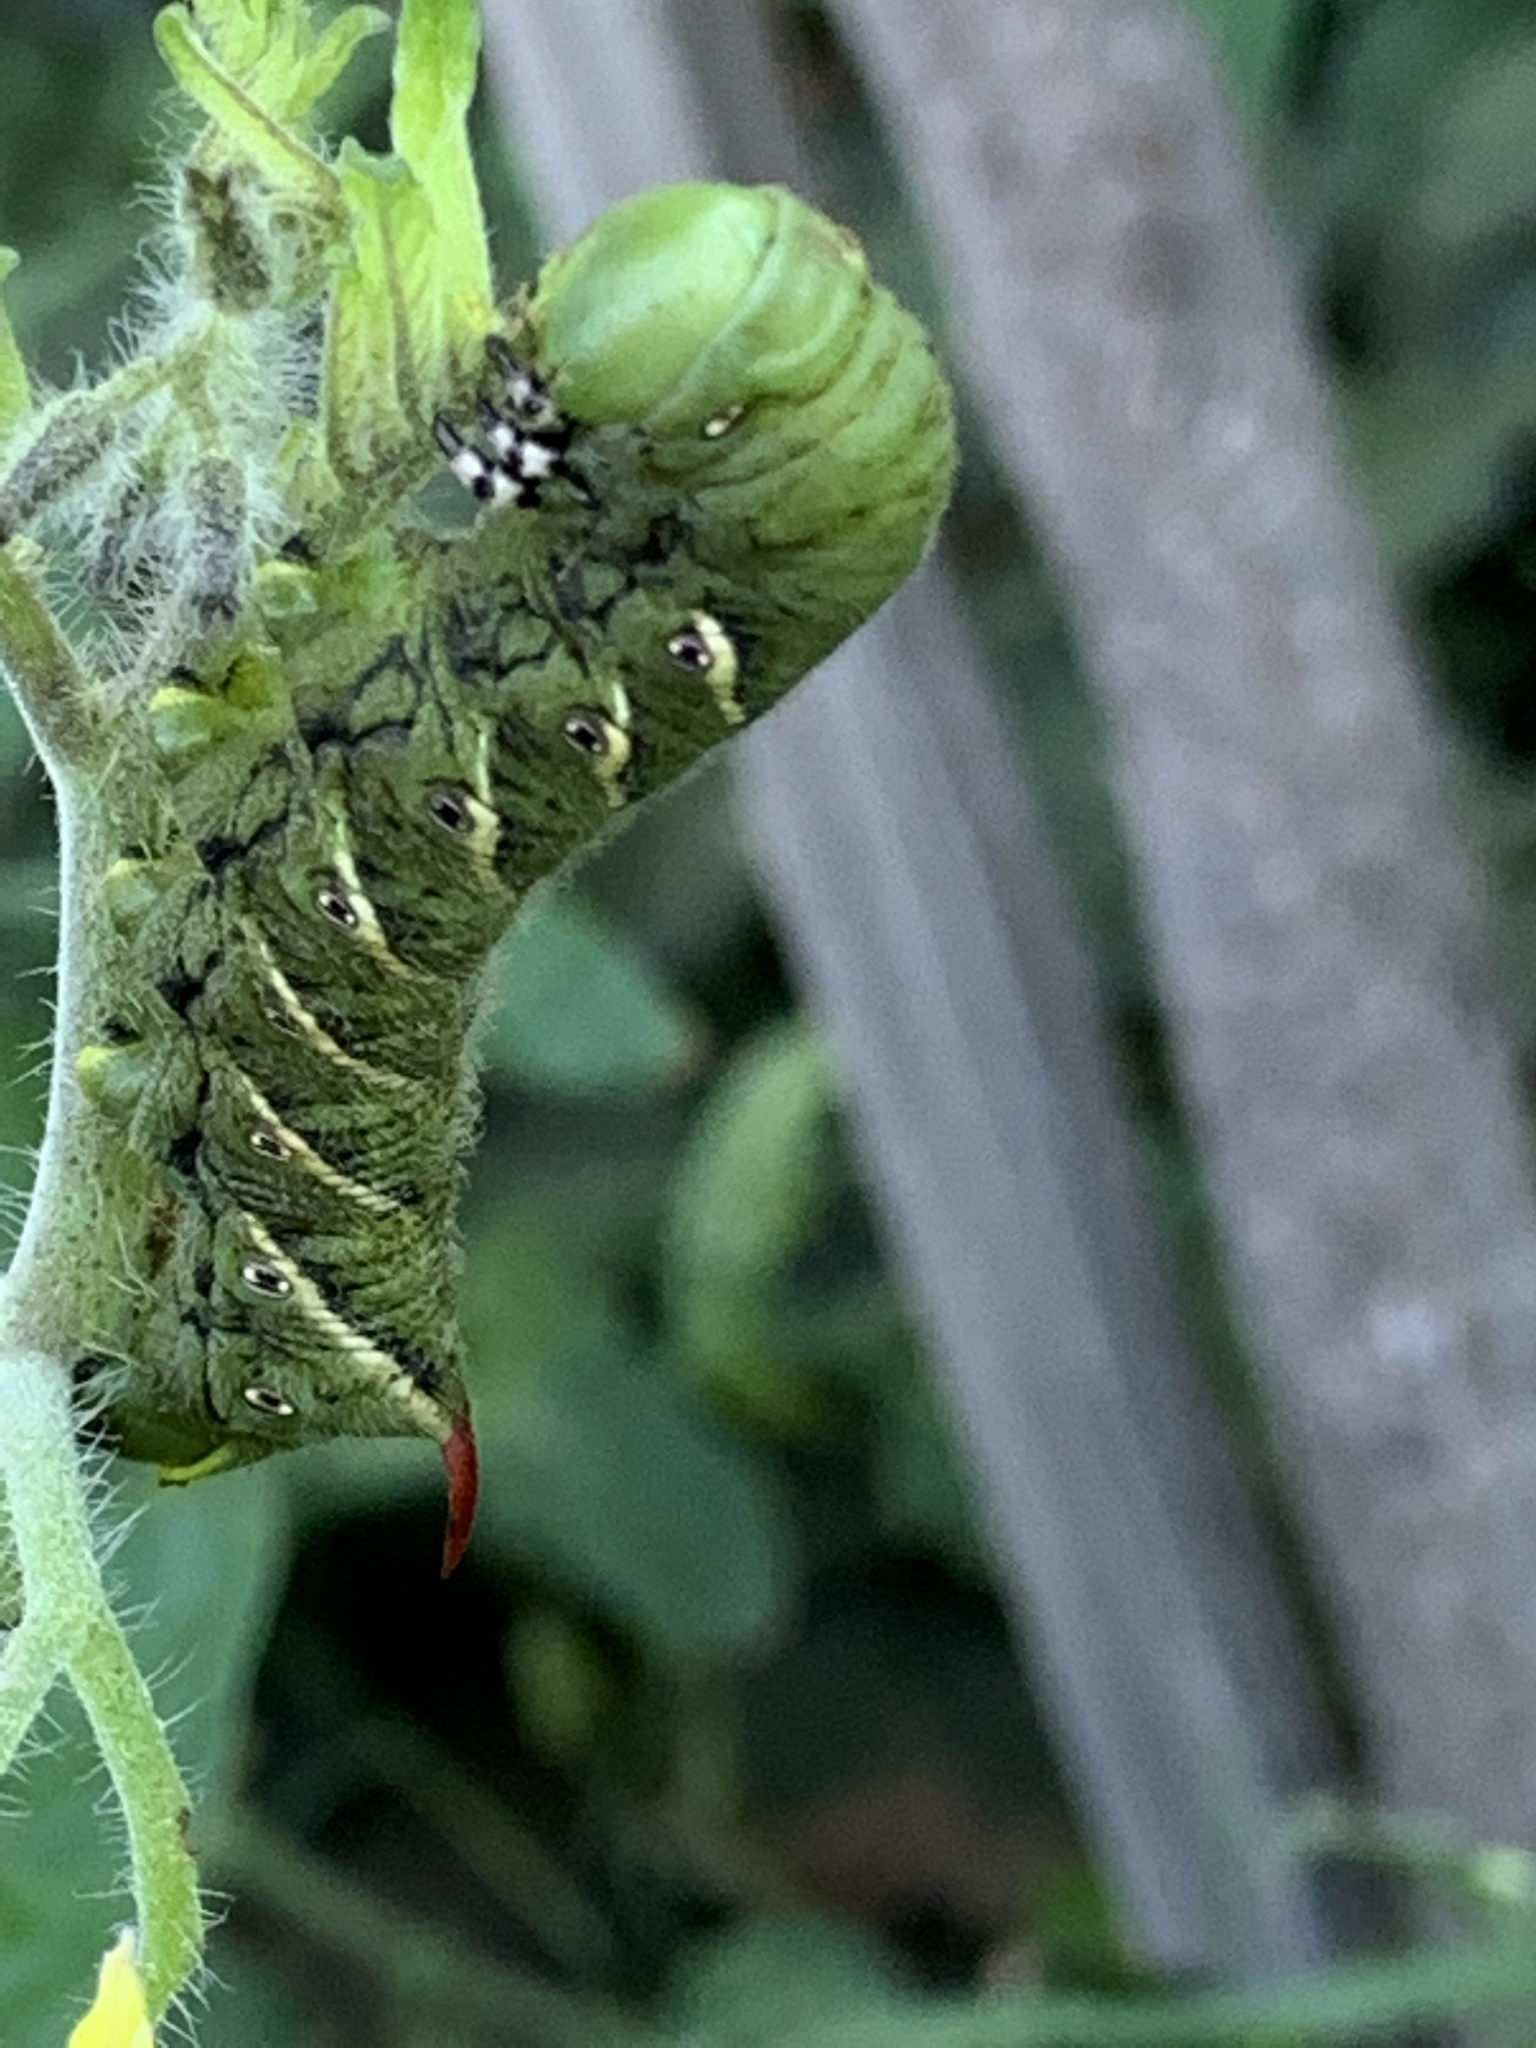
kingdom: Animalia
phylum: Arthropoda
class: Insecta
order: Lepidoptera
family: Sphingidae
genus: Manduca
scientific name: Manduca sexta
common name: Carolina sphinx
